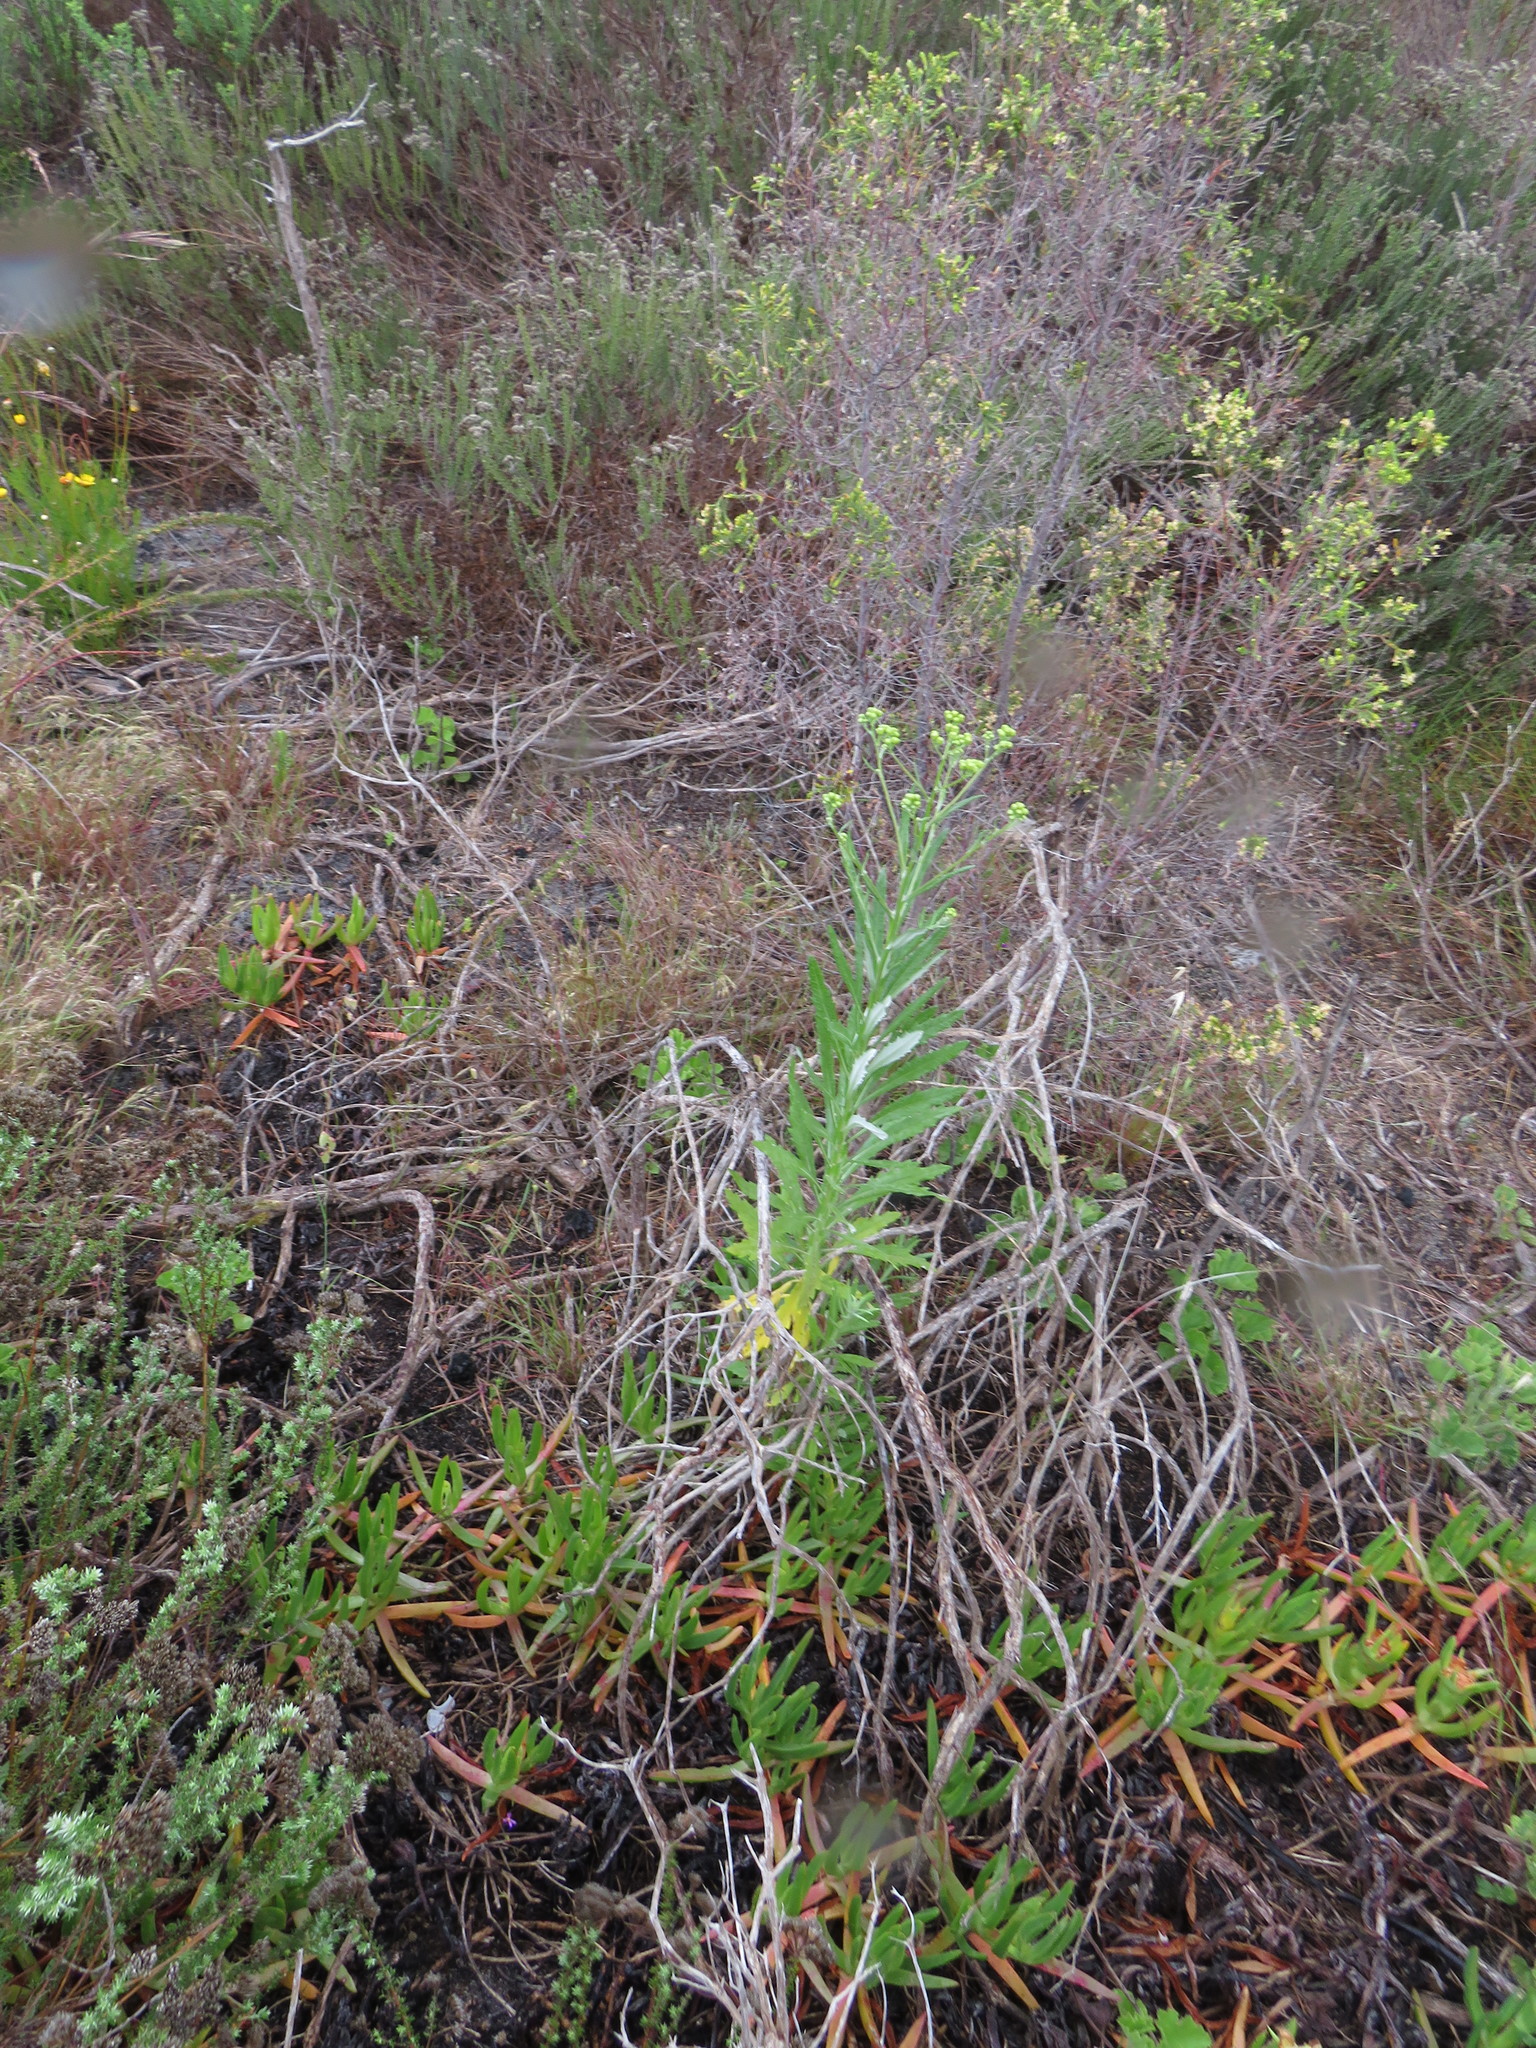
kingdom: Plantae
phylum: Tracheophyta
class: Magnoliopsida
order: Asterales
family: Asteraceae
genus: Senecio
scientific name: Senecio pterophorus
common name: Shoddy ragwort
